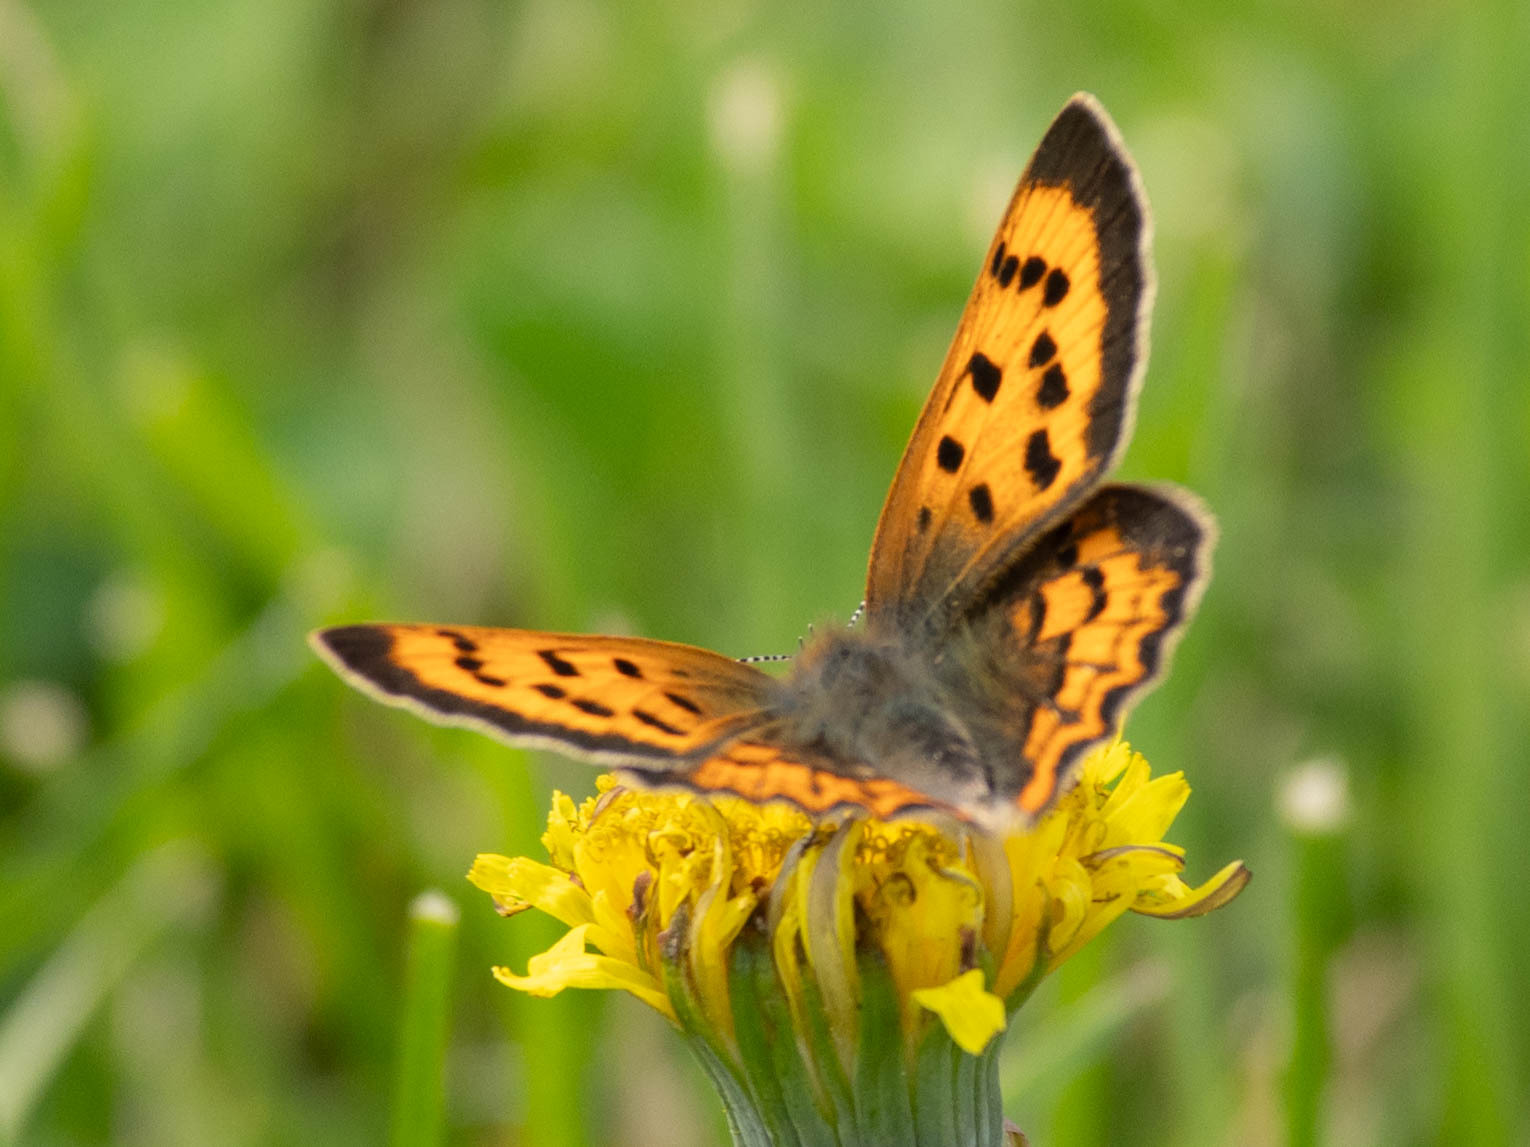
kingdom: Animalia
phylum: Arthropoda
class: Insecta
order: Lepidoptera
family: Lycaenidae
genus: Tharsalea
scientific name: Tharsalea helloides
